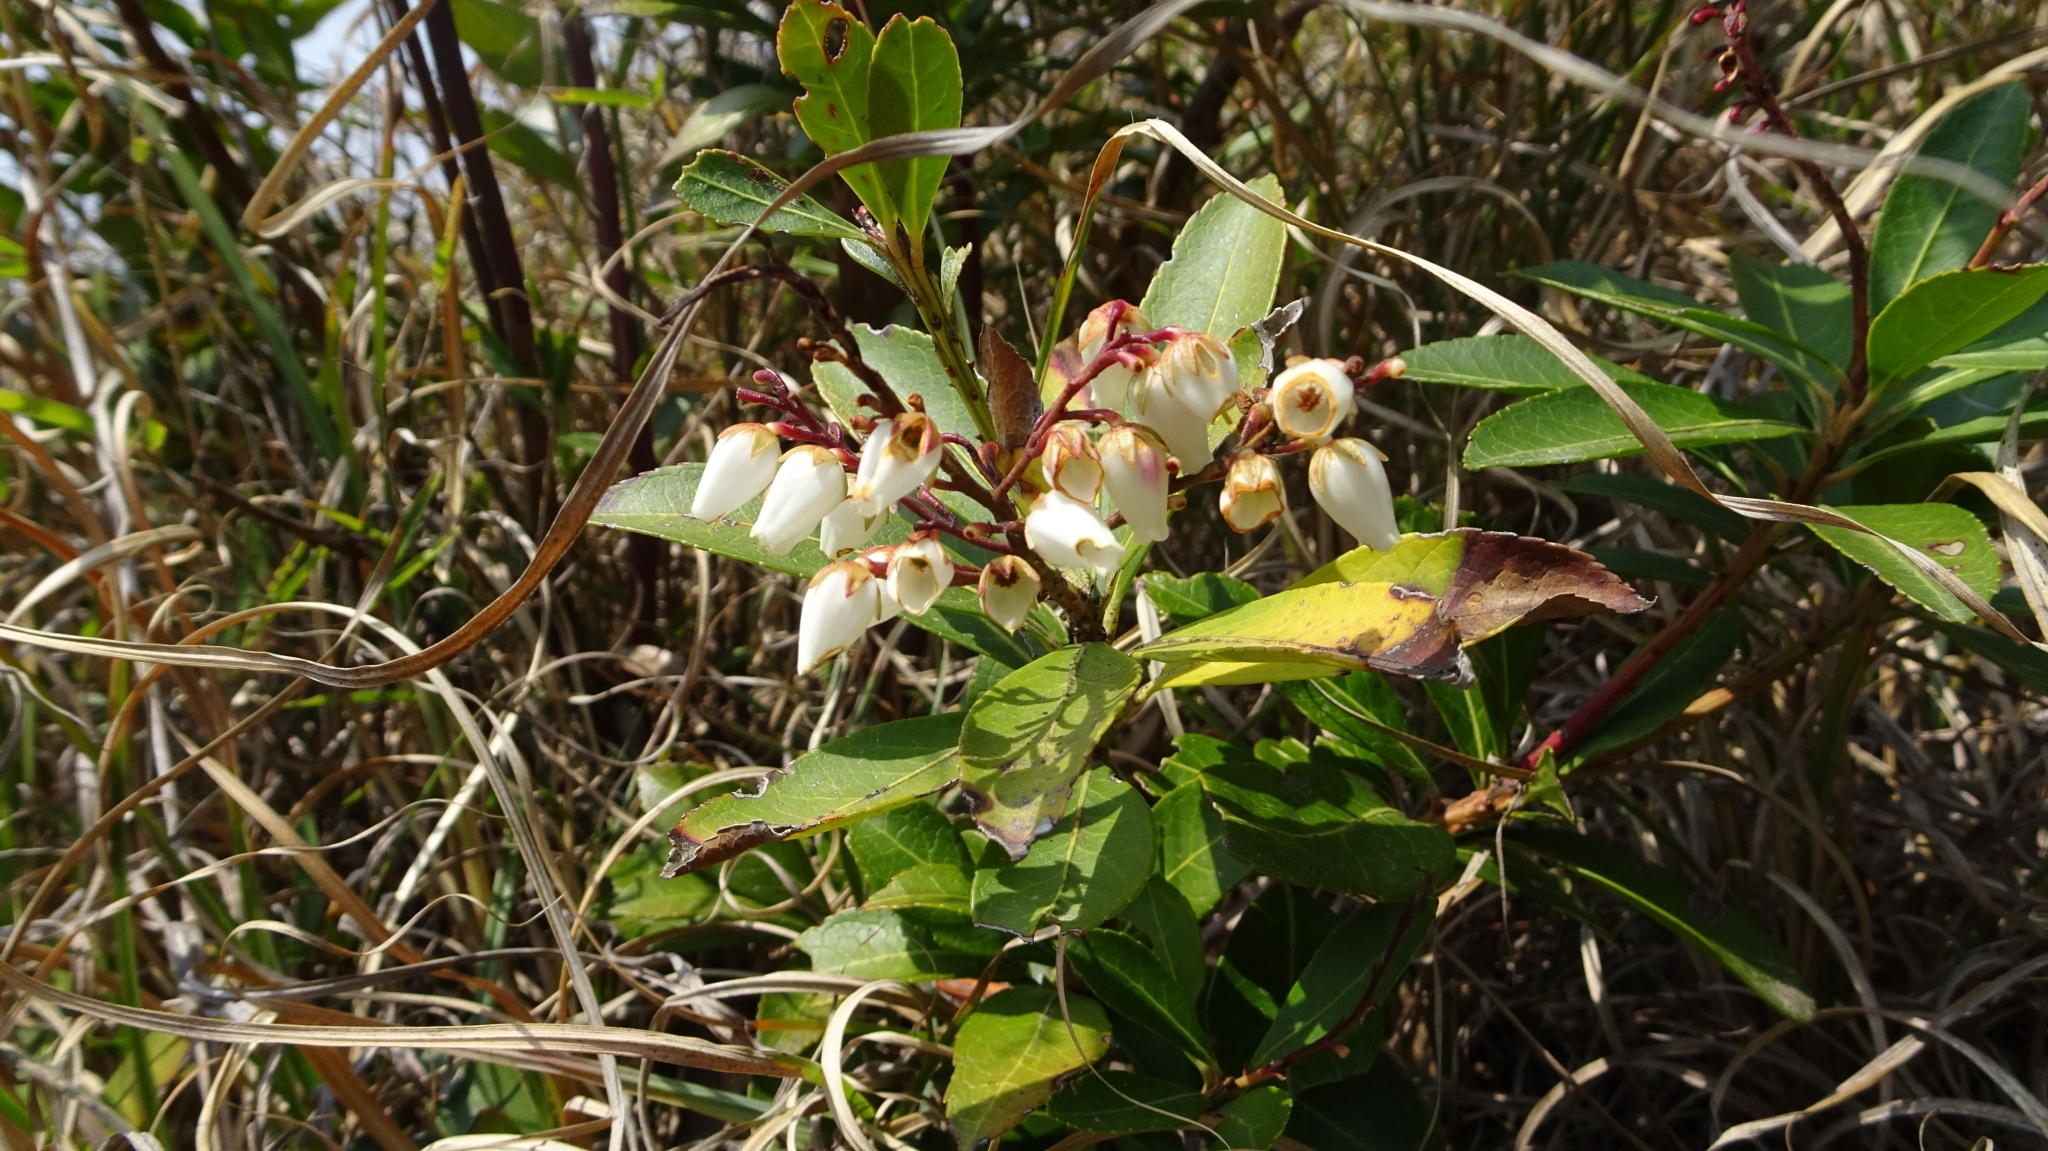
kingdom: Plantae
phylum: Tracheophyta
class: Magnoliopsida
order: Ericales
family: Ericaceae
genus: Pieris
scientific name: Pieris japonica
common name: Japanese pieris
